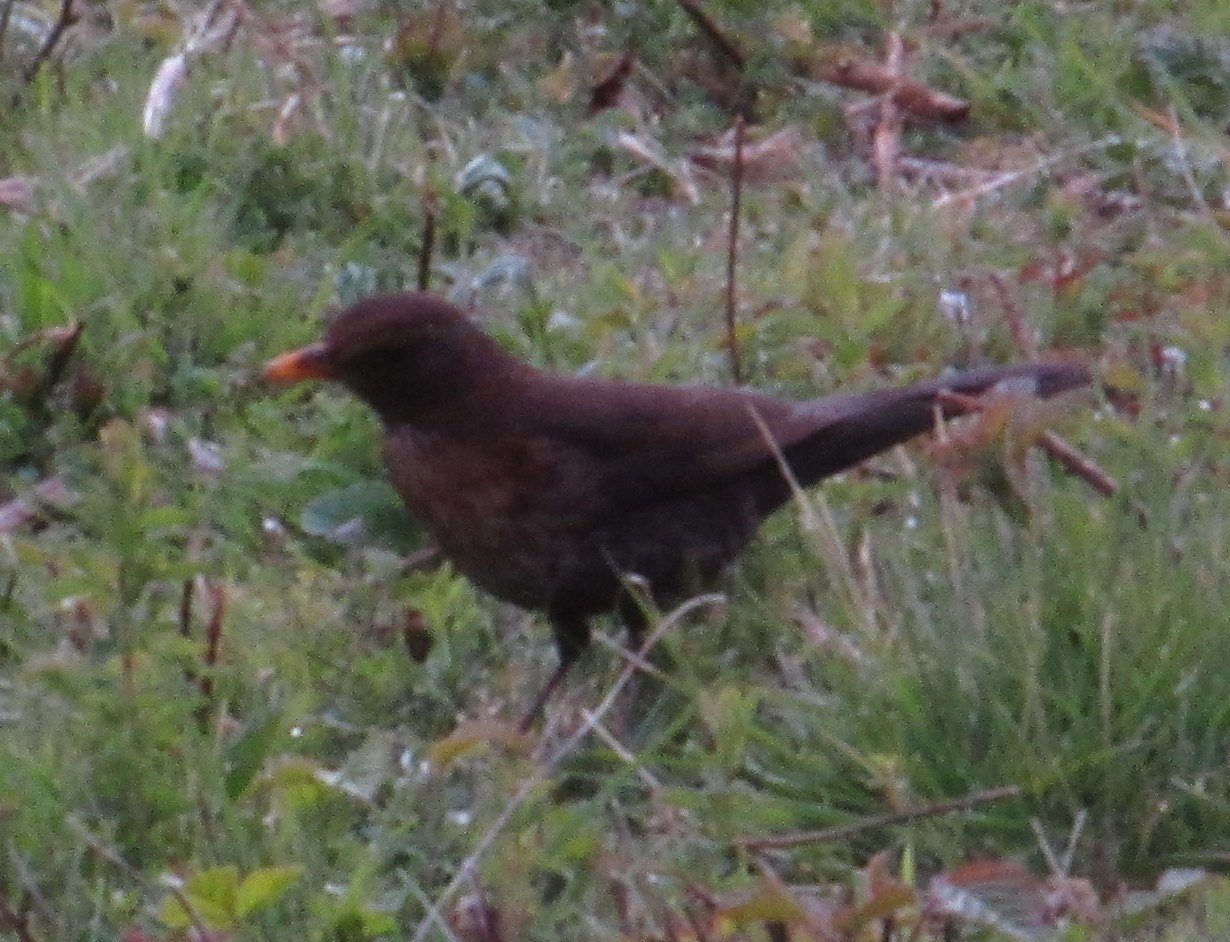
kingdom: Animalia
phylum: Chordata
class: Aves
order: Passeriformes
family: Turdidae
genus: Turdus
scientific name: Turdus merula
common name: Common blackbird
